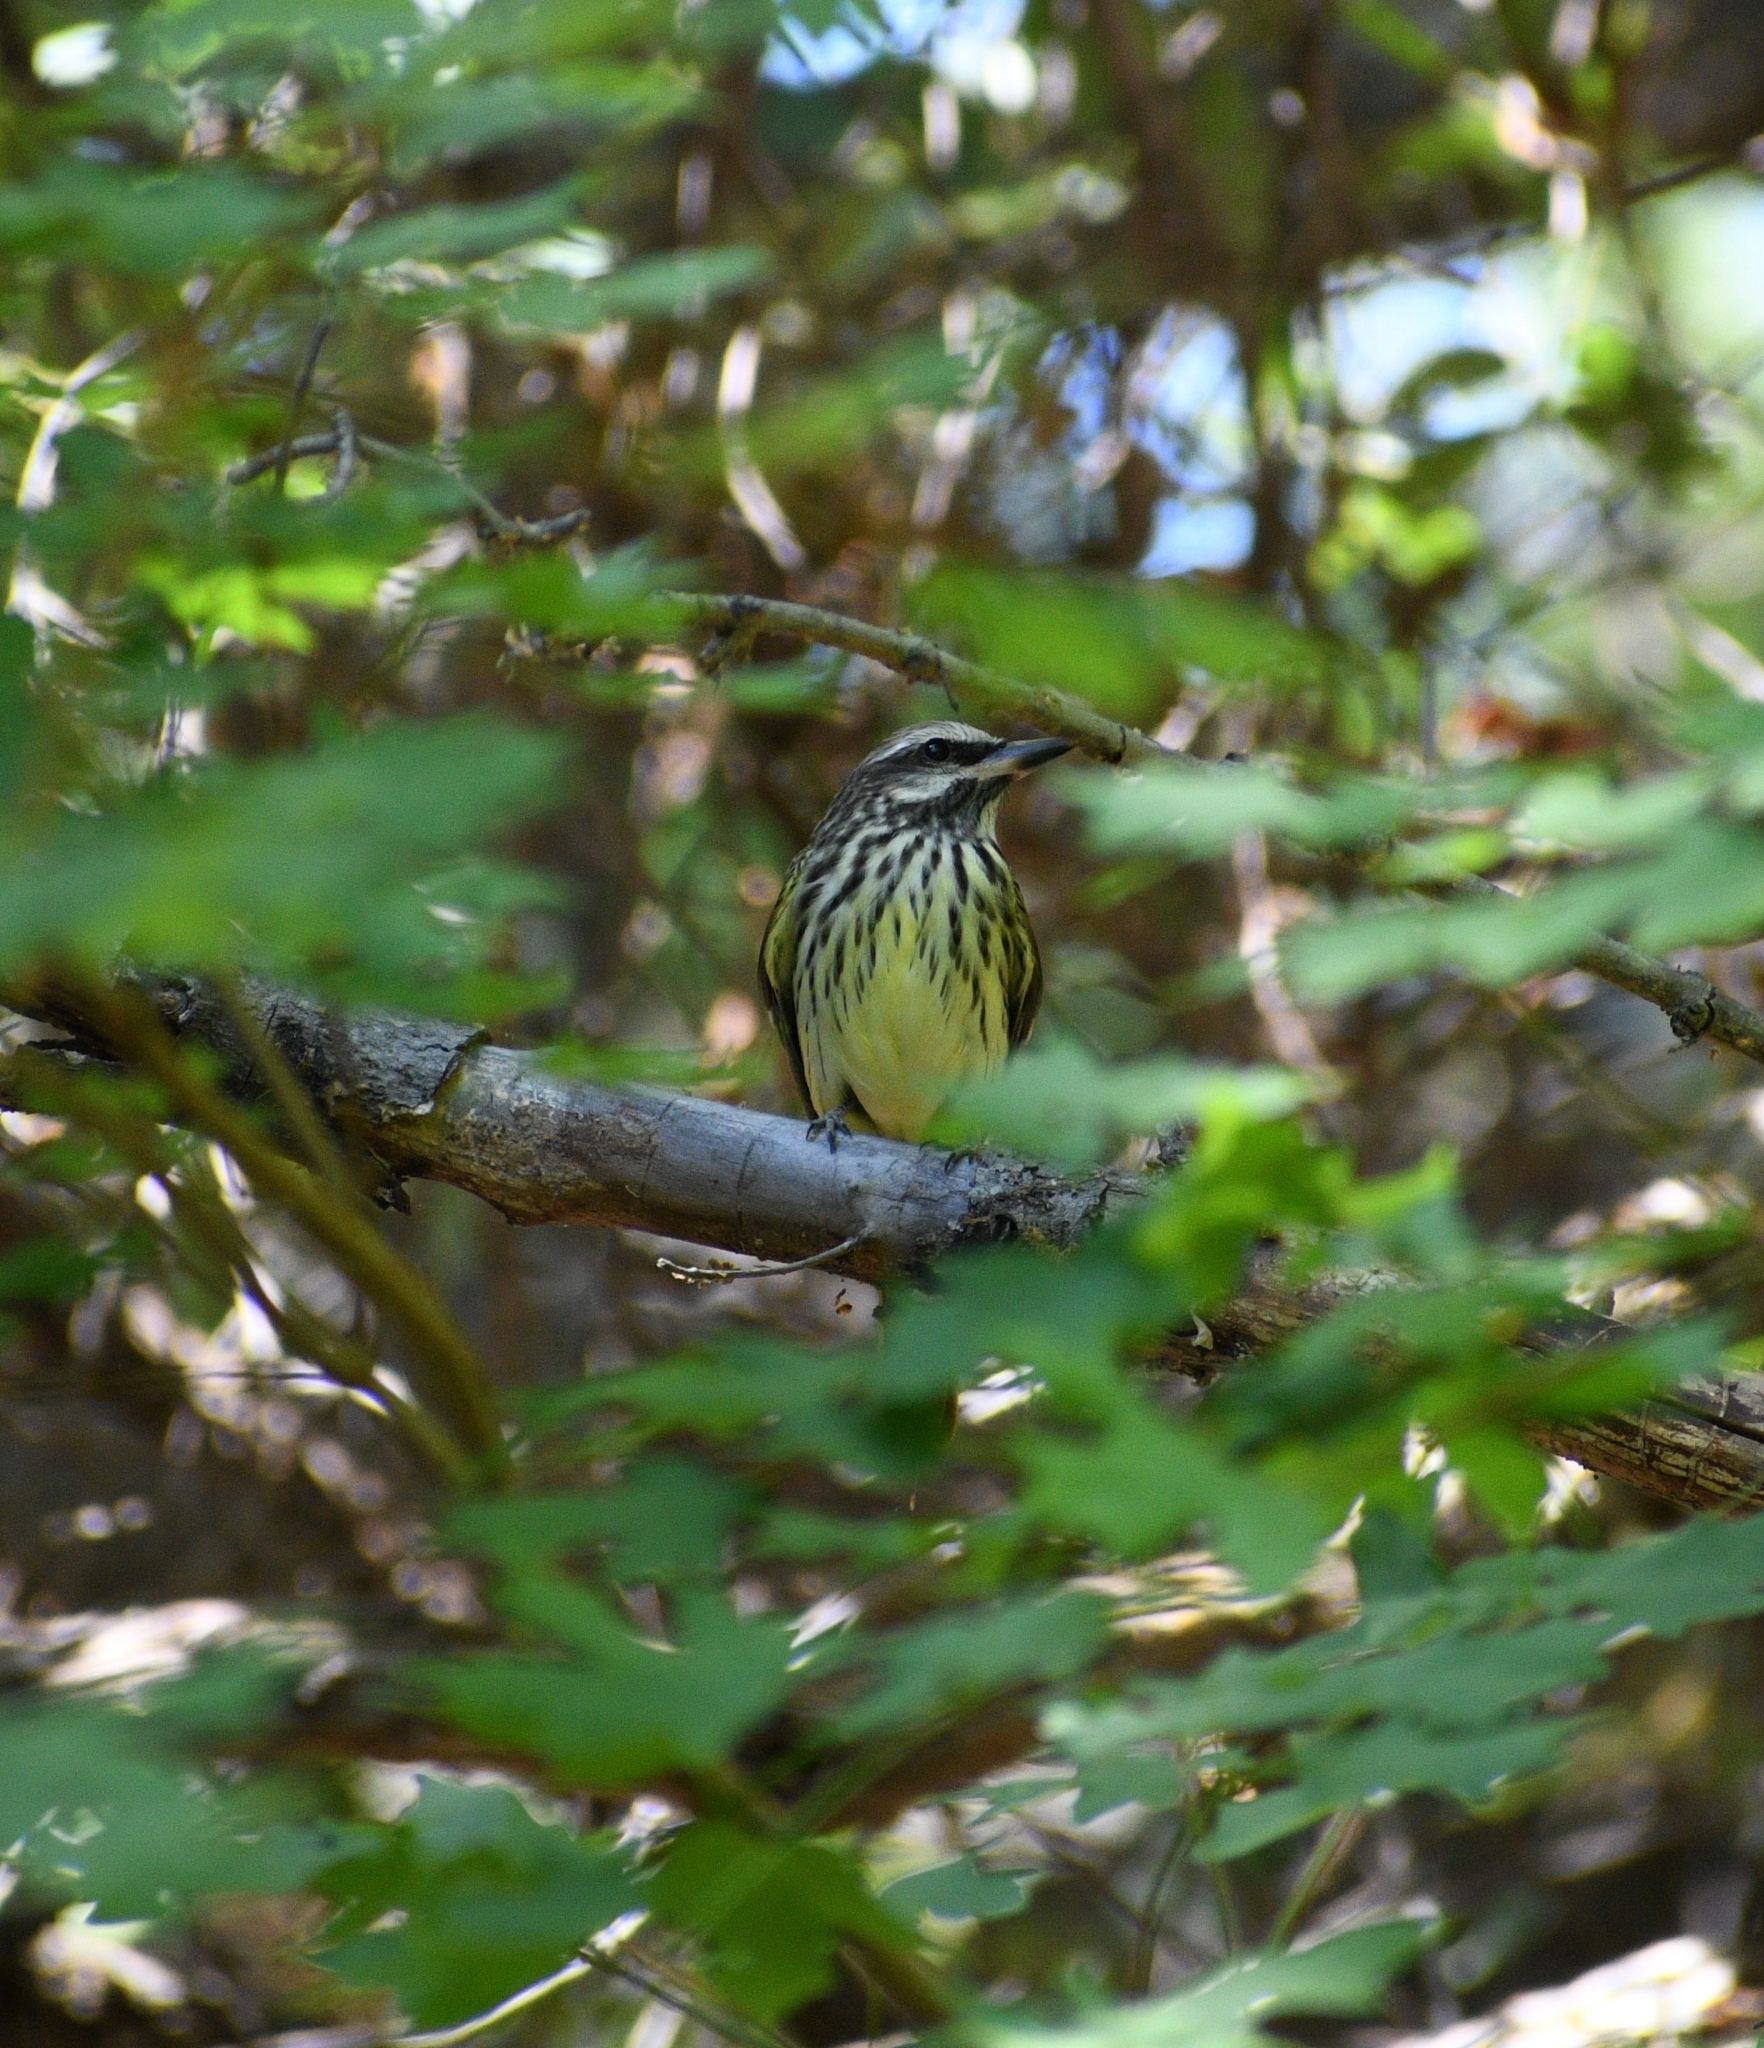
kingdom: Animalia
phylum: Chordata
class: Aves
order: Passeriformes
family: Tyrannidae
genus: Myiodynastes
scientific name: Myiodynastes luteiventris
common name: Sulphur-bellied flycatcher
